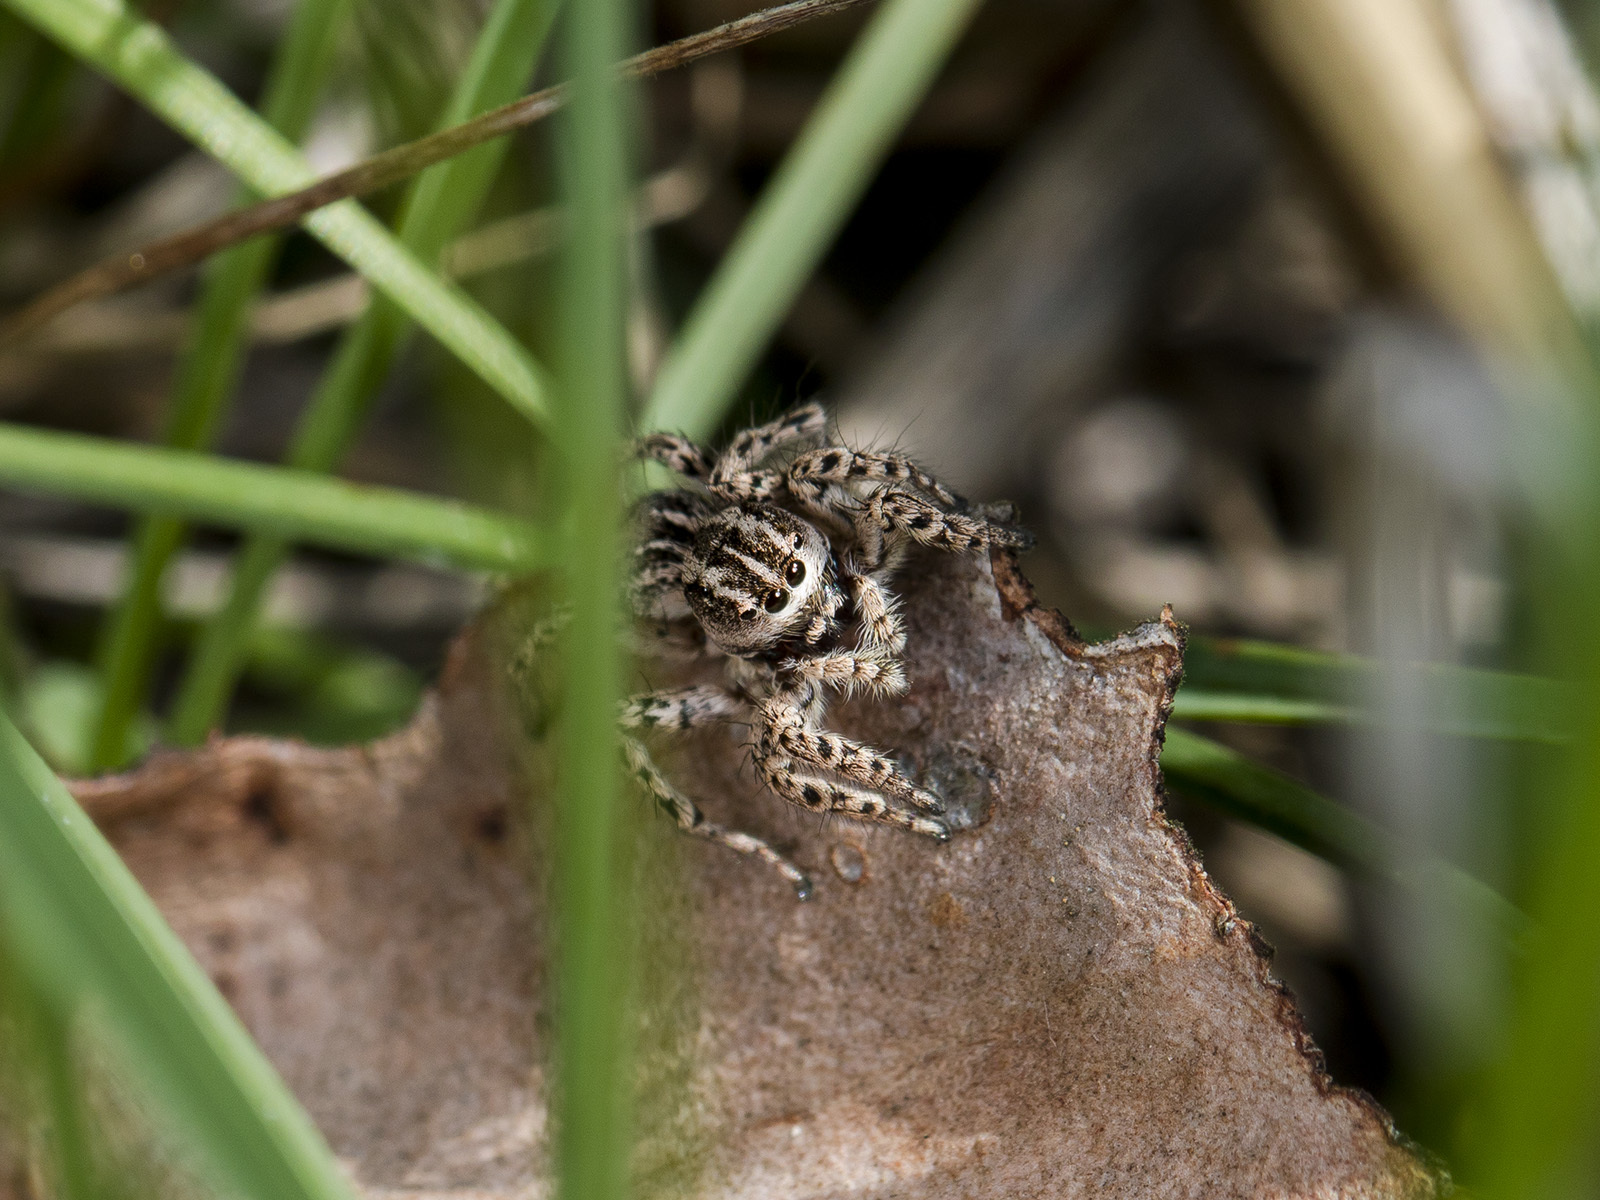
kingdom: Animalia
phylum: Arthropoda
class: Arachnida
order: Araneae
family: Salticidae
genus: Aelurillus
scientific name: Aelurillus m-nigrum
